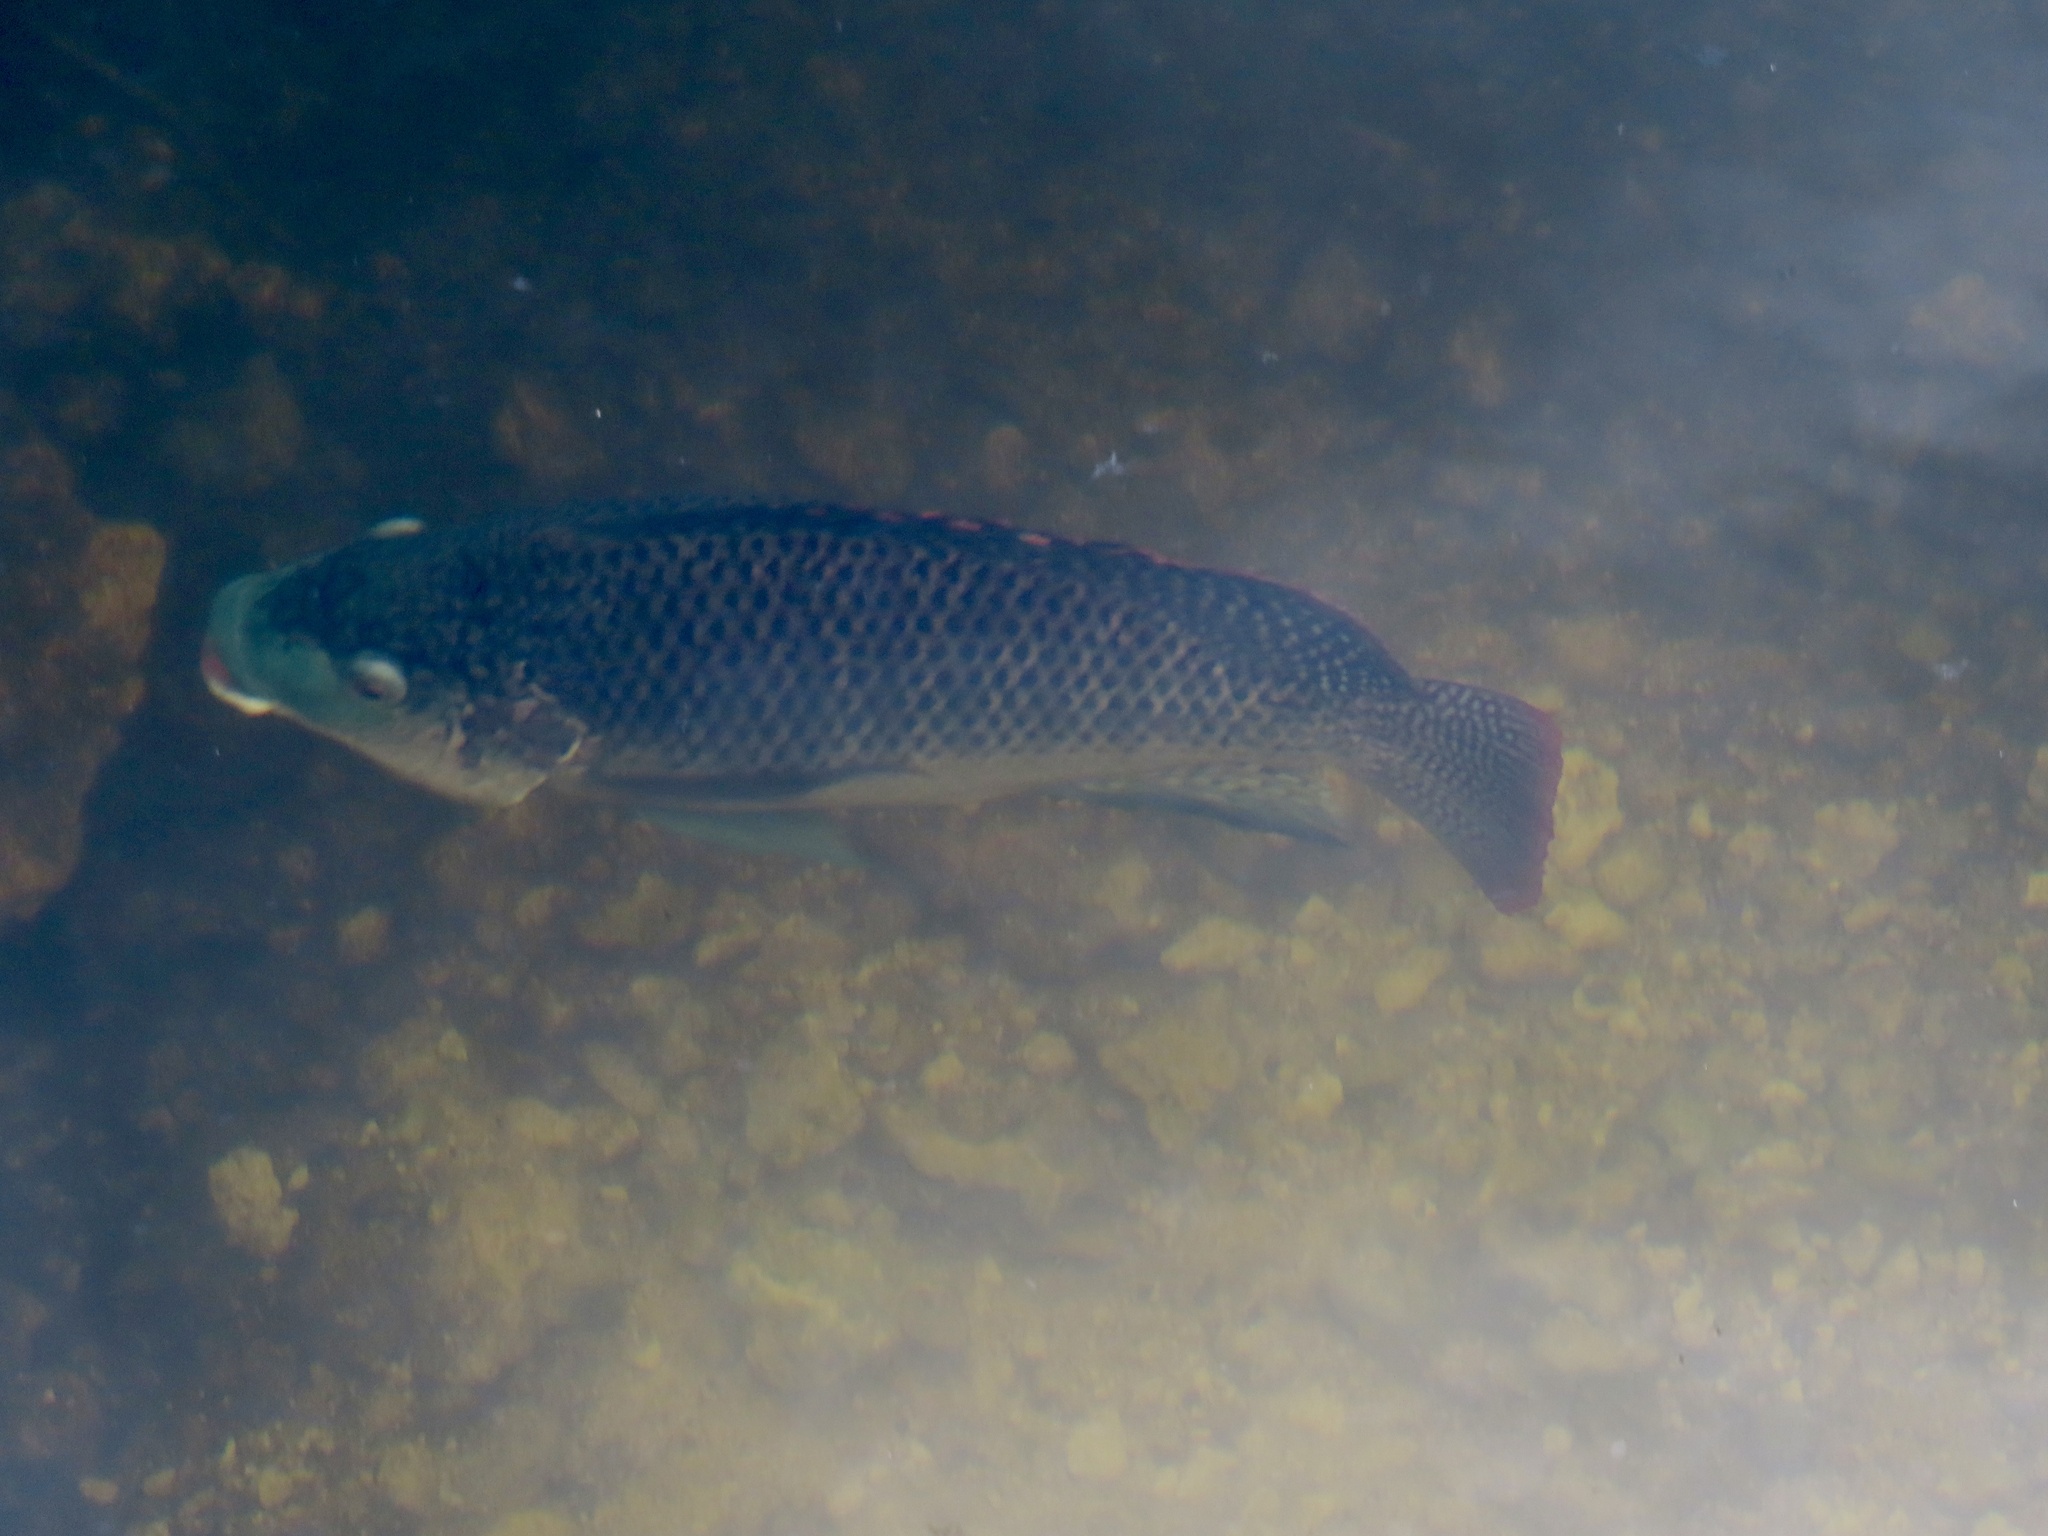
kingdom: Animalia
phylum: Chordata
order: Perciformes
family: Cichlidae
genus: Oreochromis
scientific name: Oreochromis aureus
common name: Blue tilapia
